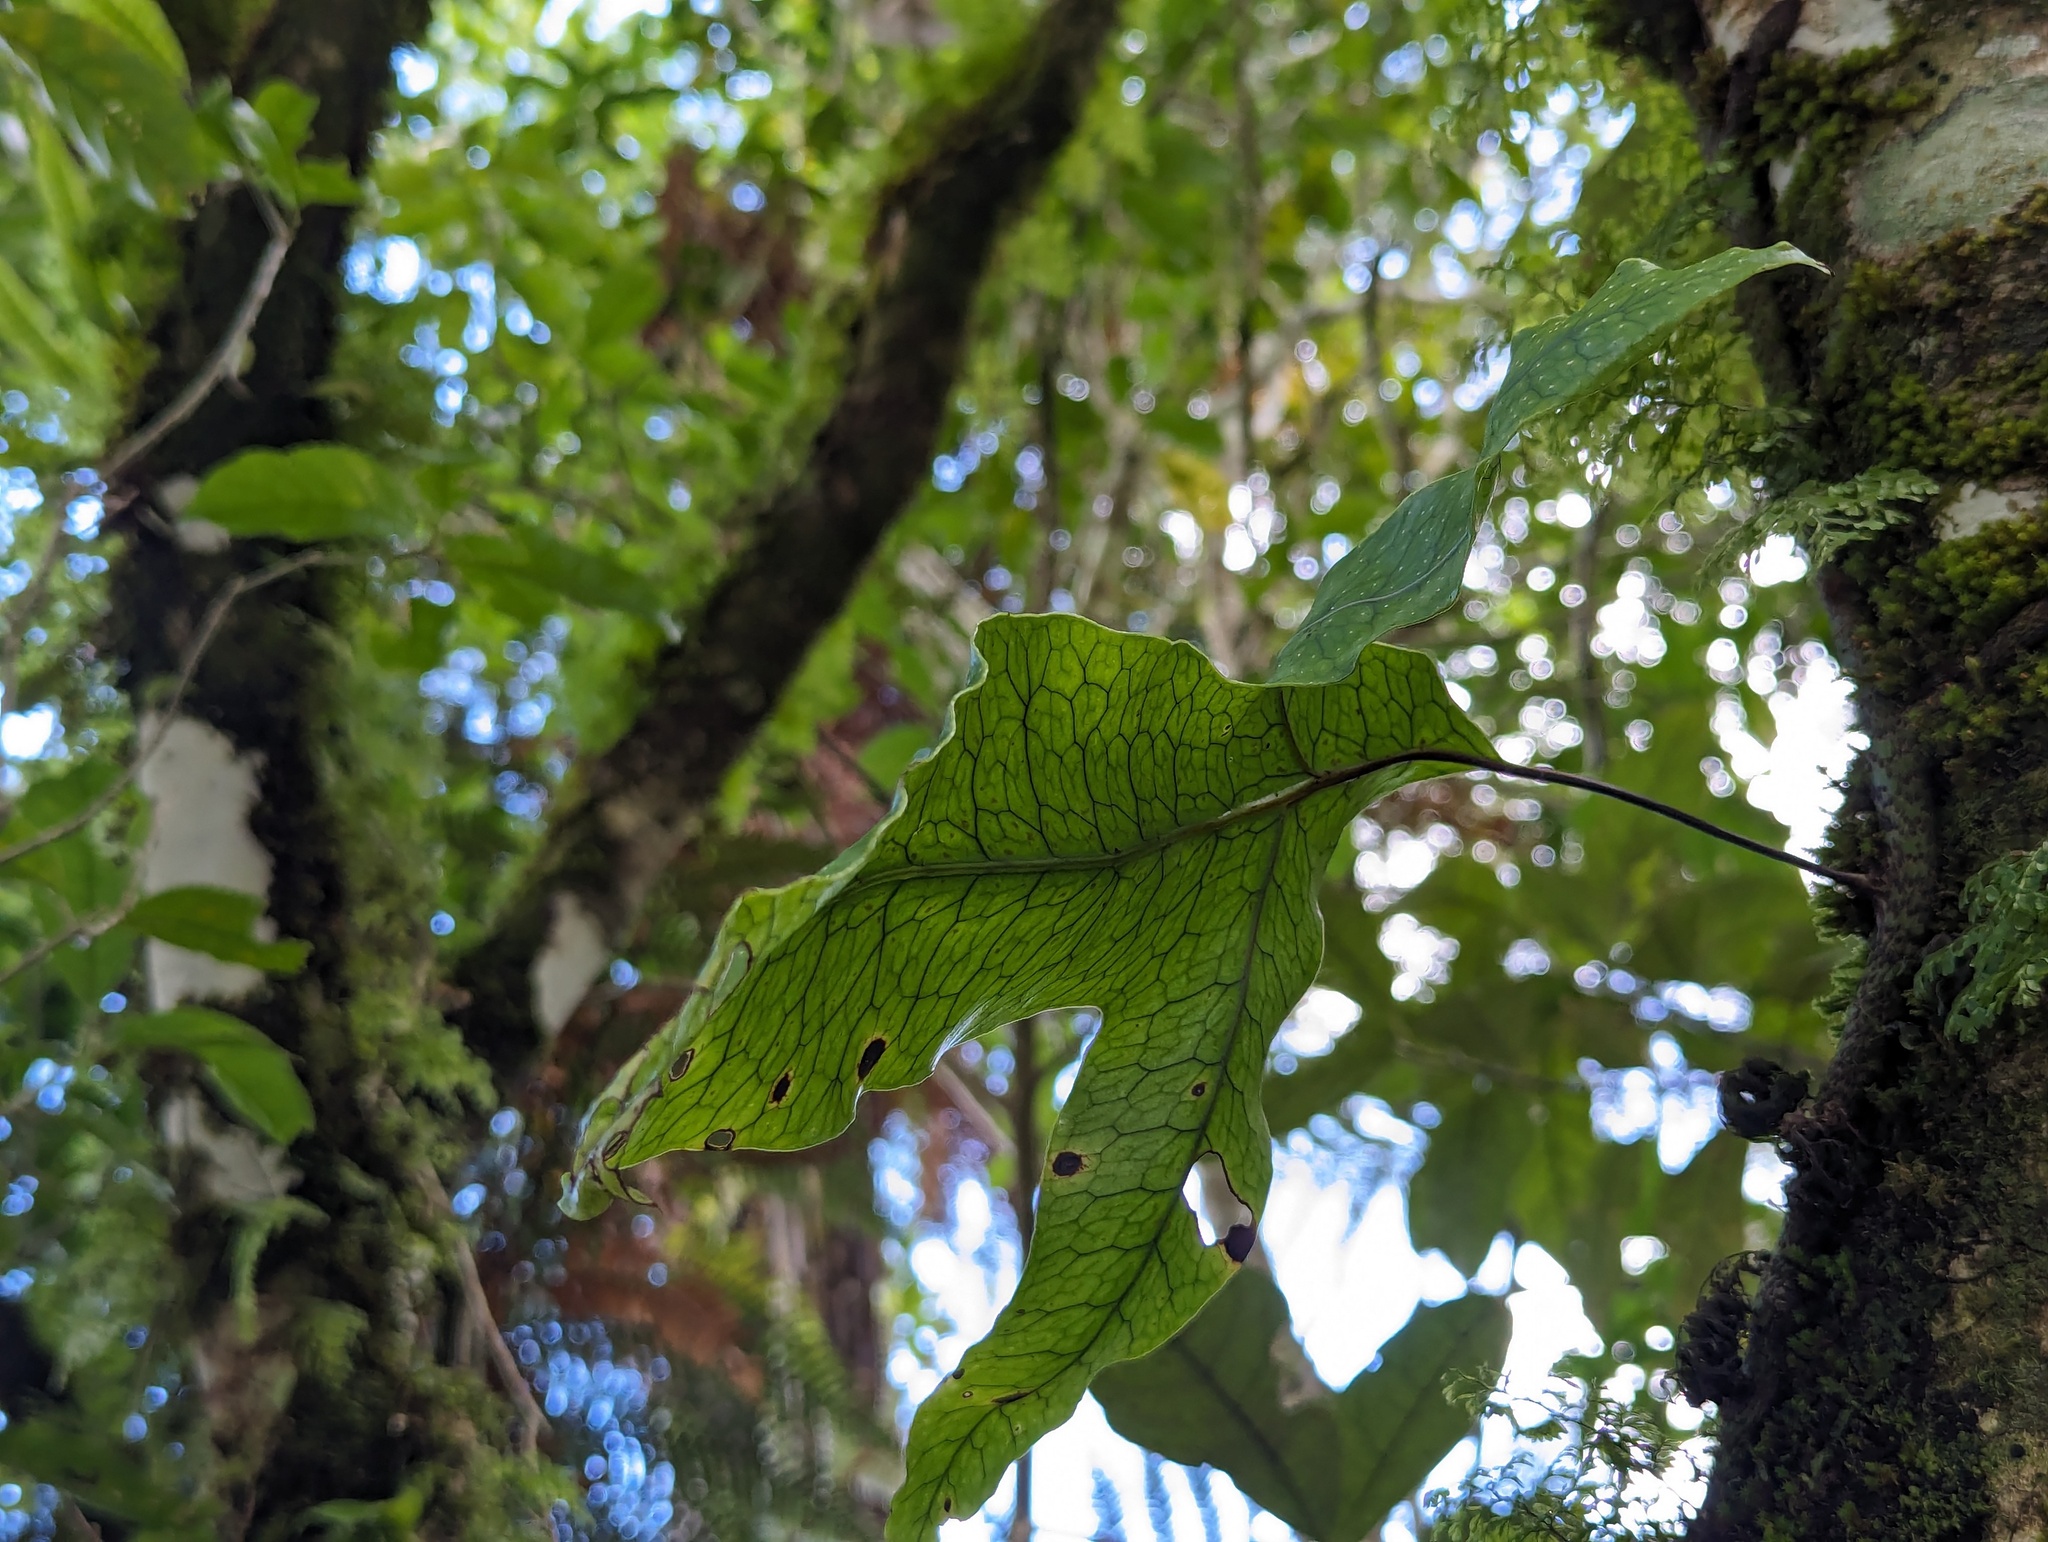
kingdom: Plantae
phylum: Tracheophyta
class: Polypodiopsida
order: Polypodiales
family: Polypodiaceae
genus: Lecanopteris
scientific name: Lecanopteris pustulata
